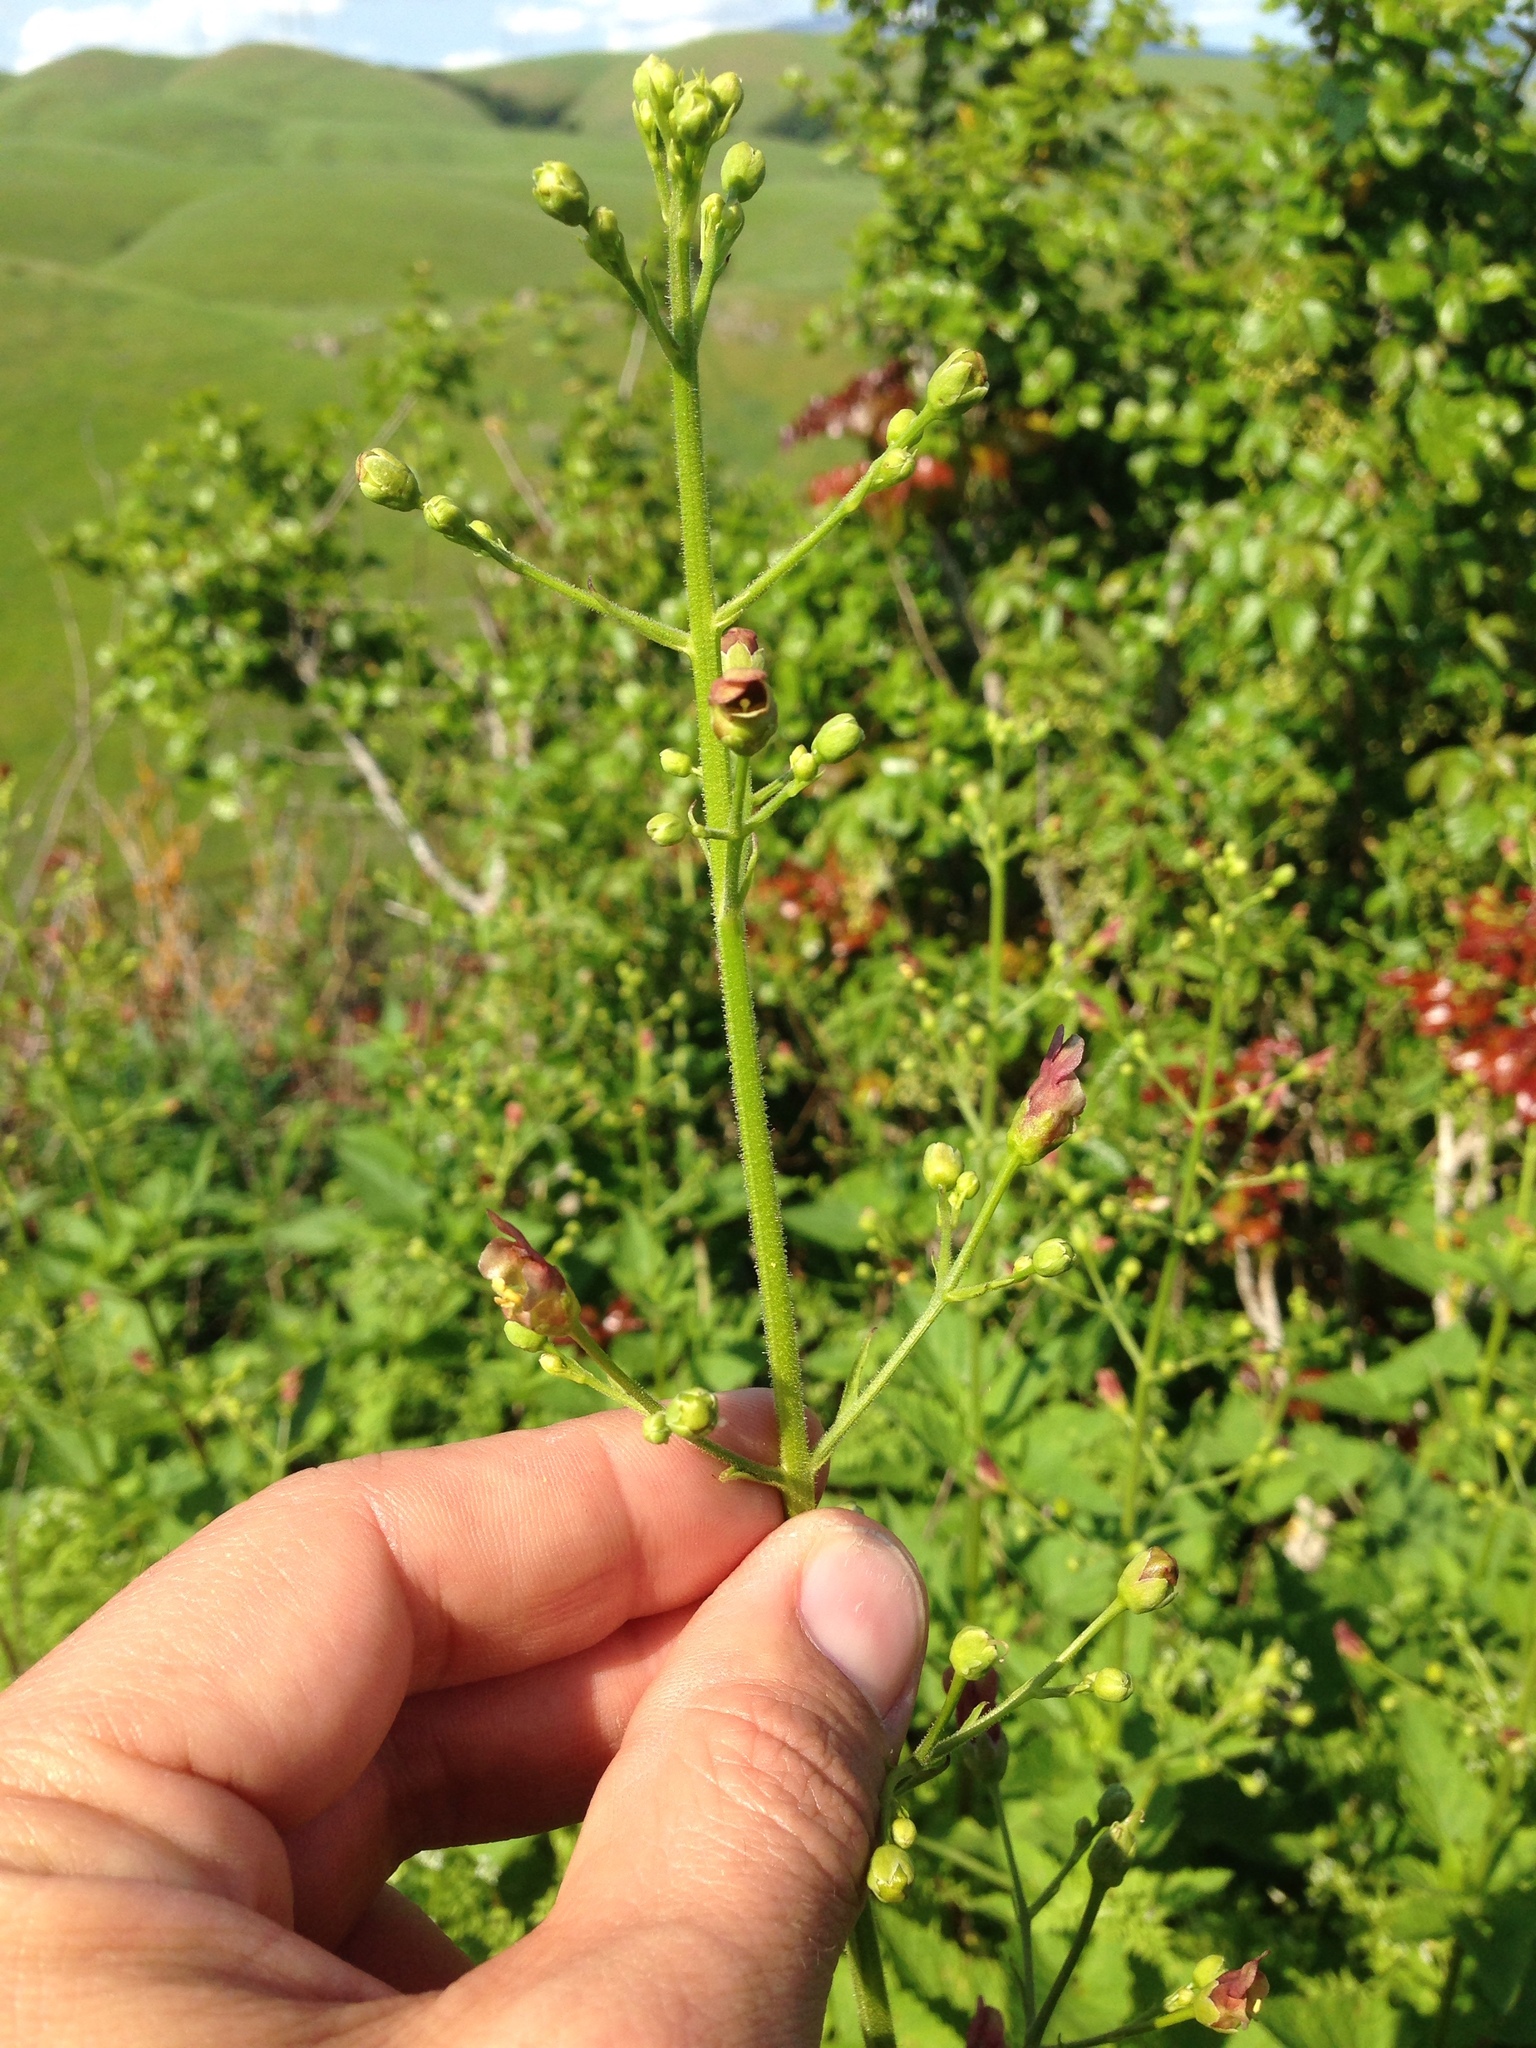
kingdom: Plantae
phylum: Tracheophyta
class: Magnoliopsida
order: Lamiales
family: Scrophulariaceae
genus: Scrophularia
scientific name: Scrophularia californica
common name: California figwort
